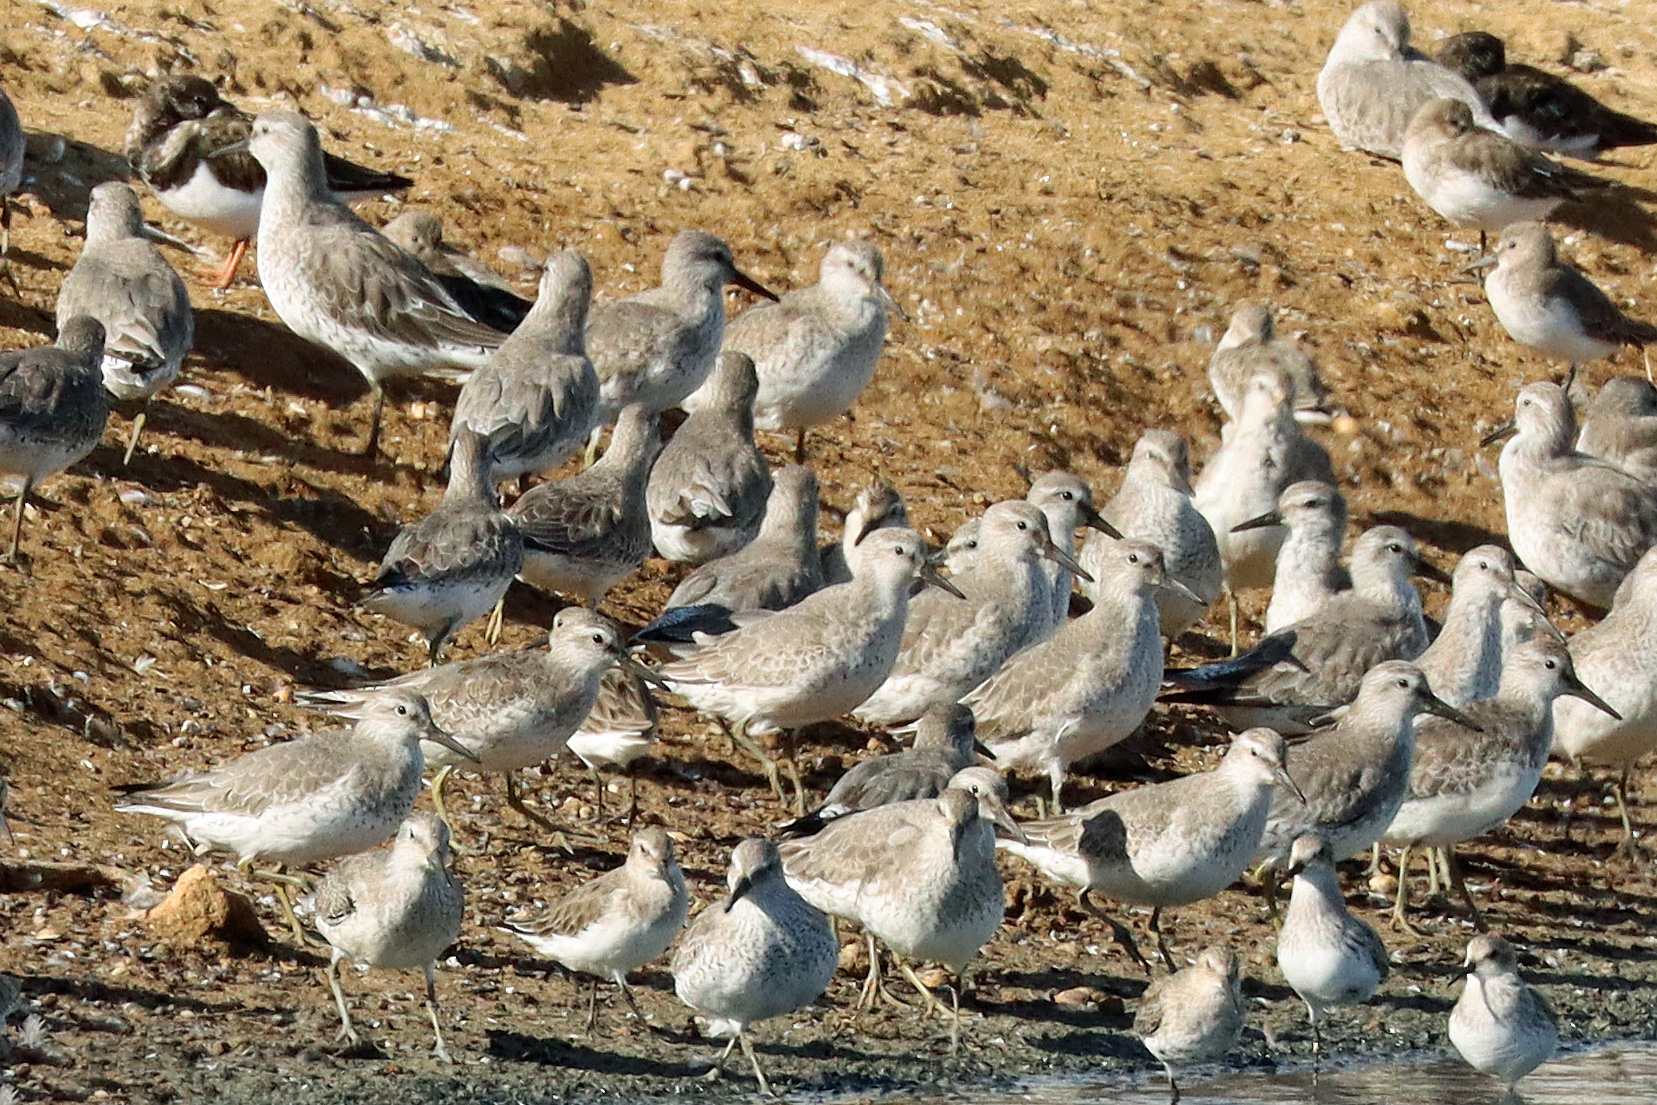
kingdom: Animalia
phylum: Chordata
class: Aves
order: Charadriiformes
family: Scolopacidae
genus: Calidris
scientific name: Calidris canutus
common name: Red knot
